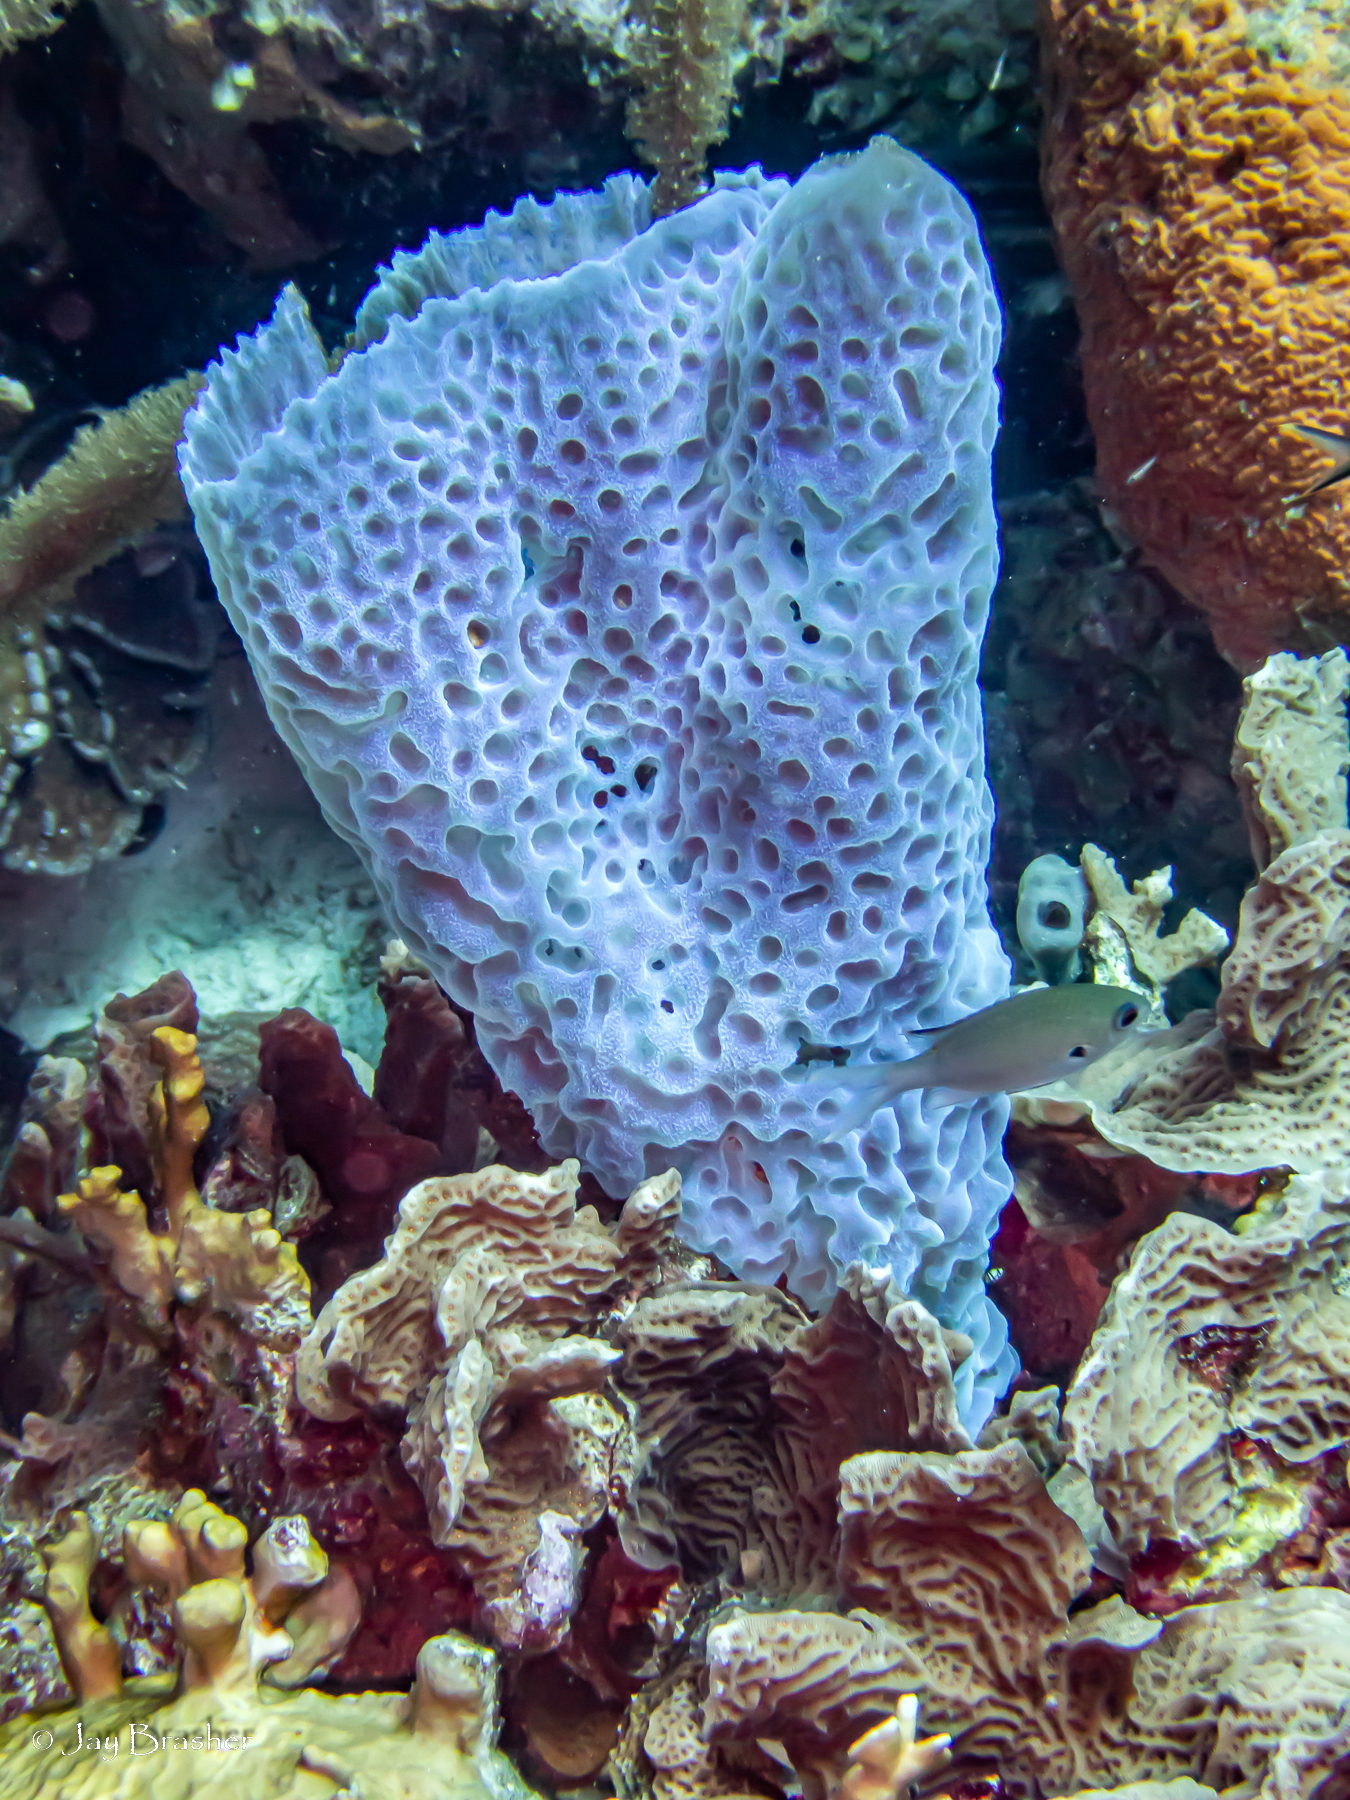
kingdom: Animalia
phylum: Porifera
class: Demospongiae
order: Haplosclerida
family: Callyspongiidae
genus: Callyspongia
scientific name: Callyspongia plicifera
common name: Azure vase sponge
